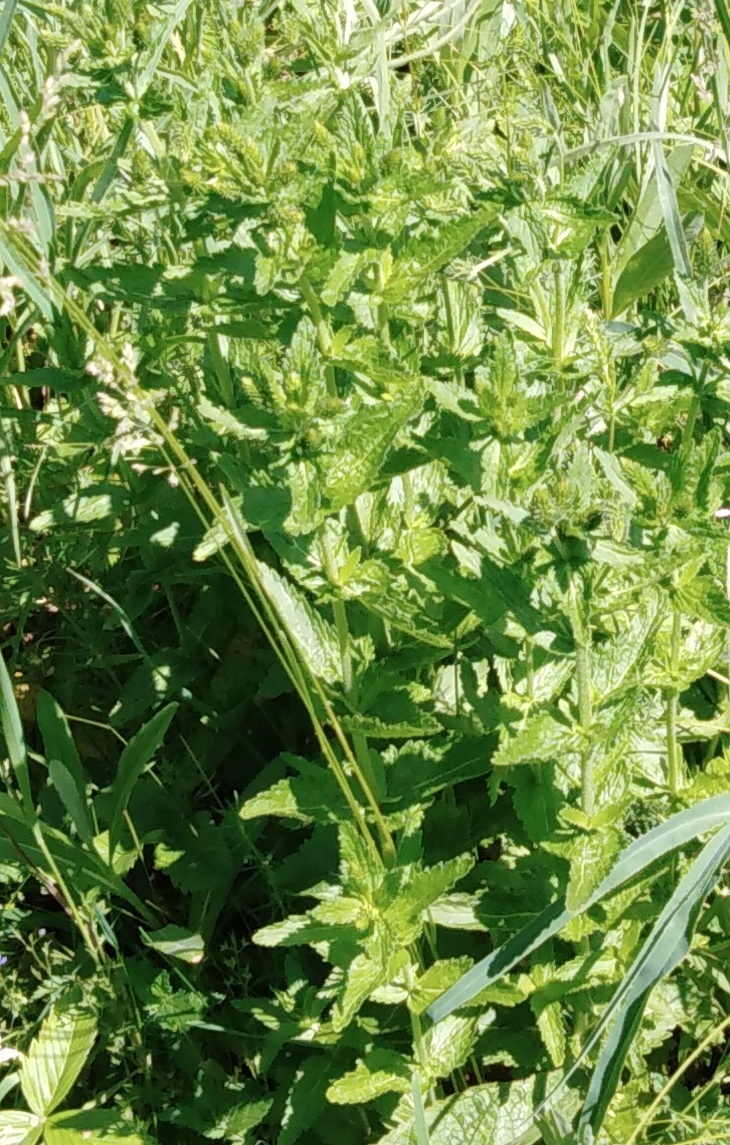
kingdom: Plantae
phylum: Tracheophyta
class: Magnoliopsida
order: Lamiales
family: Plantaginaceae
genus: Veronica
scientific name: Veronica teucrium
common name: Large speedwell
